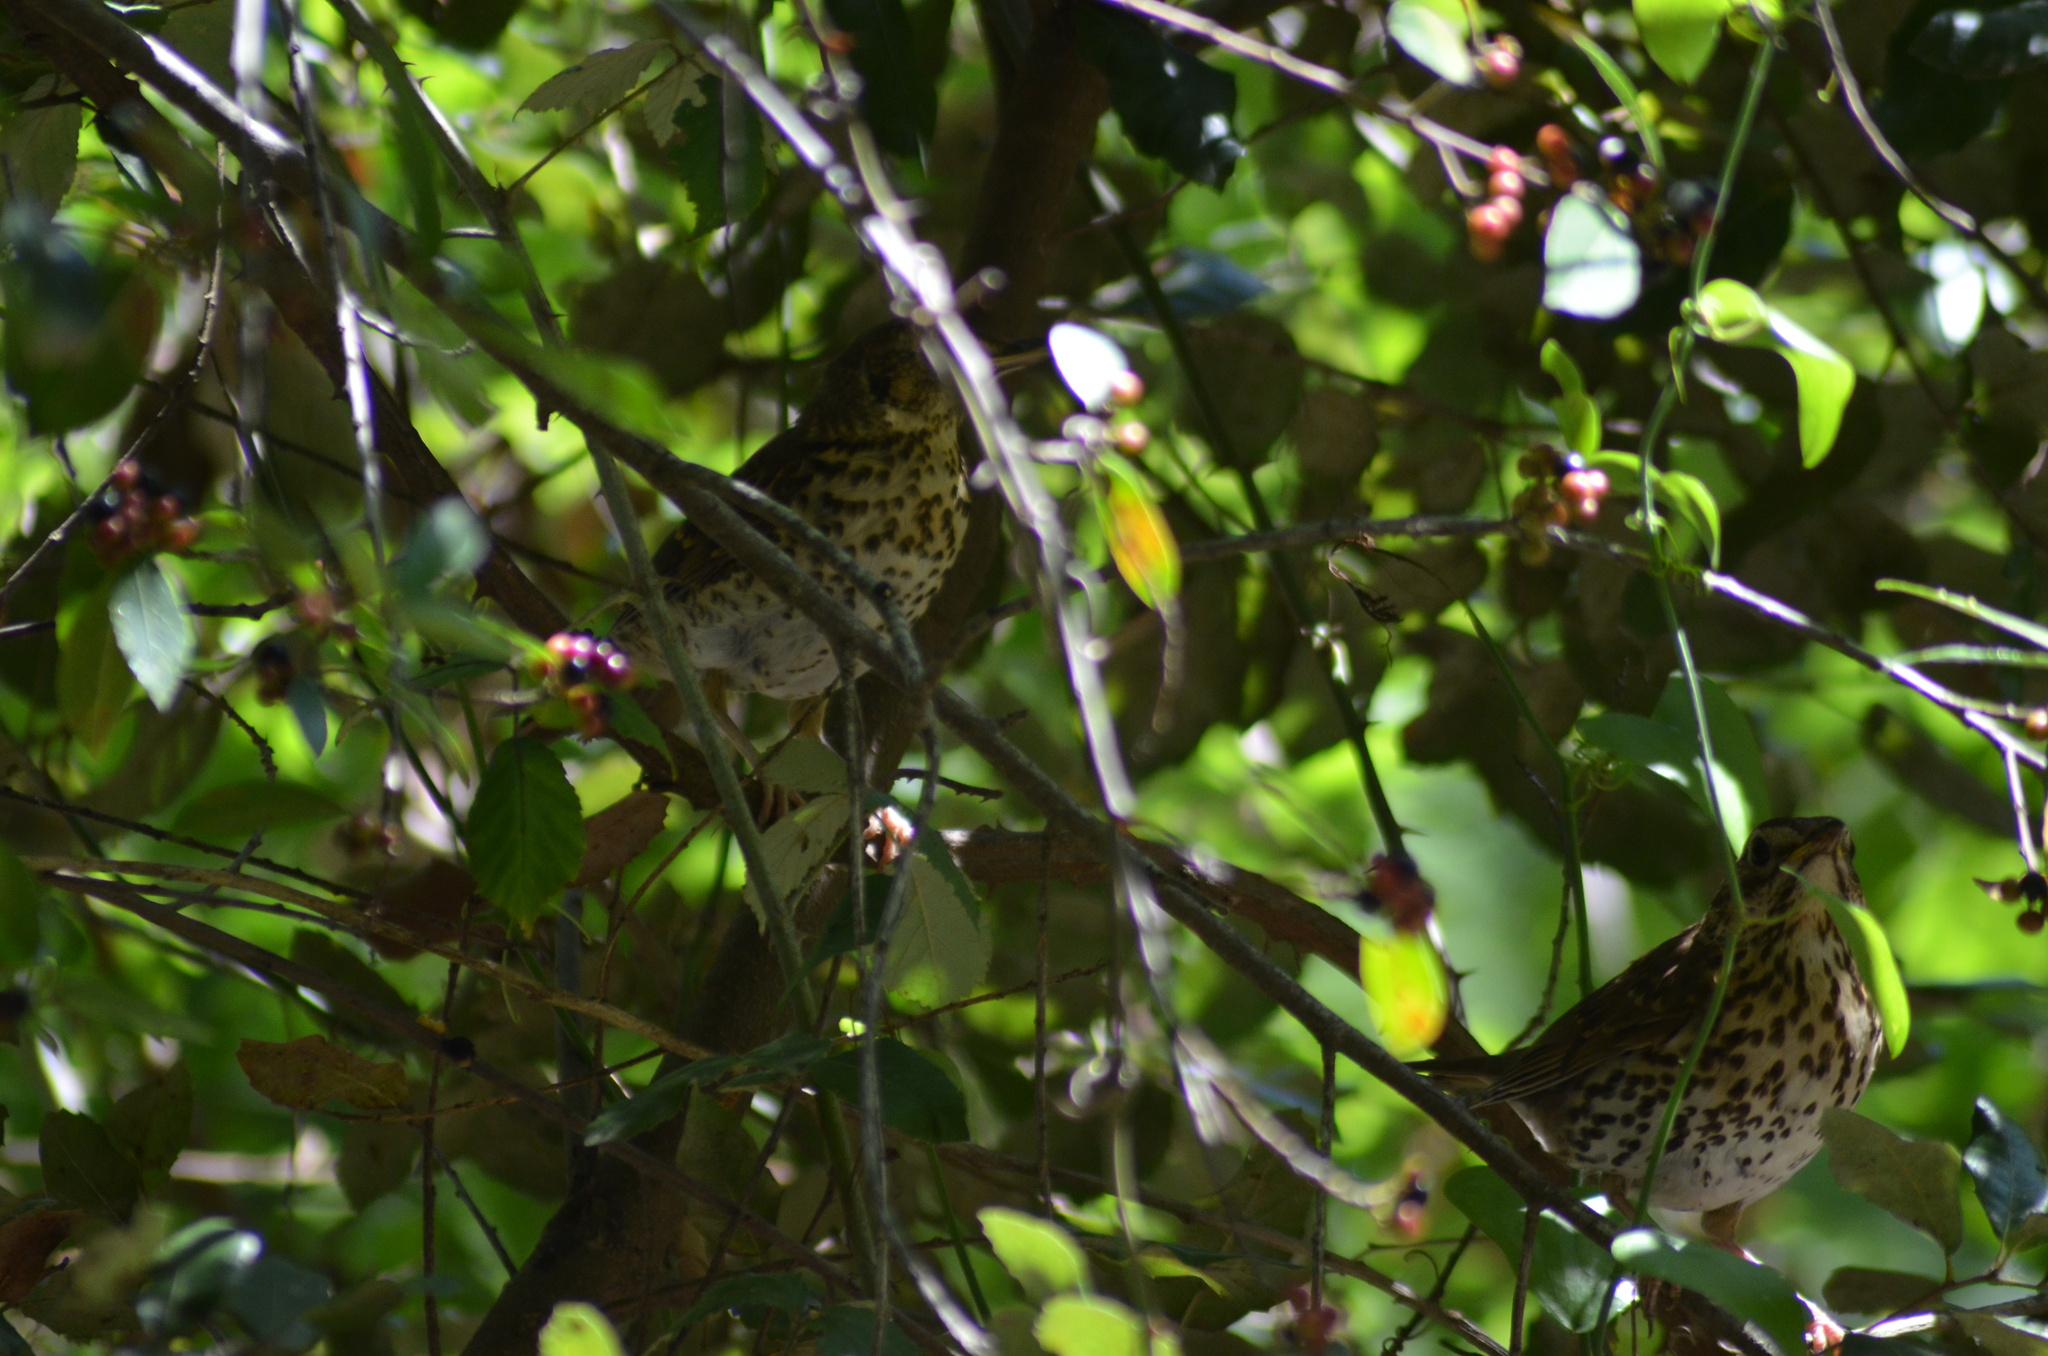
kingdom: Animalia
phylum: Chordata
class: Aves
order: Passeriformes
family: Turdidae
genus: Turdus
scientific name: Turdus philomelos
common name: Song thrush
